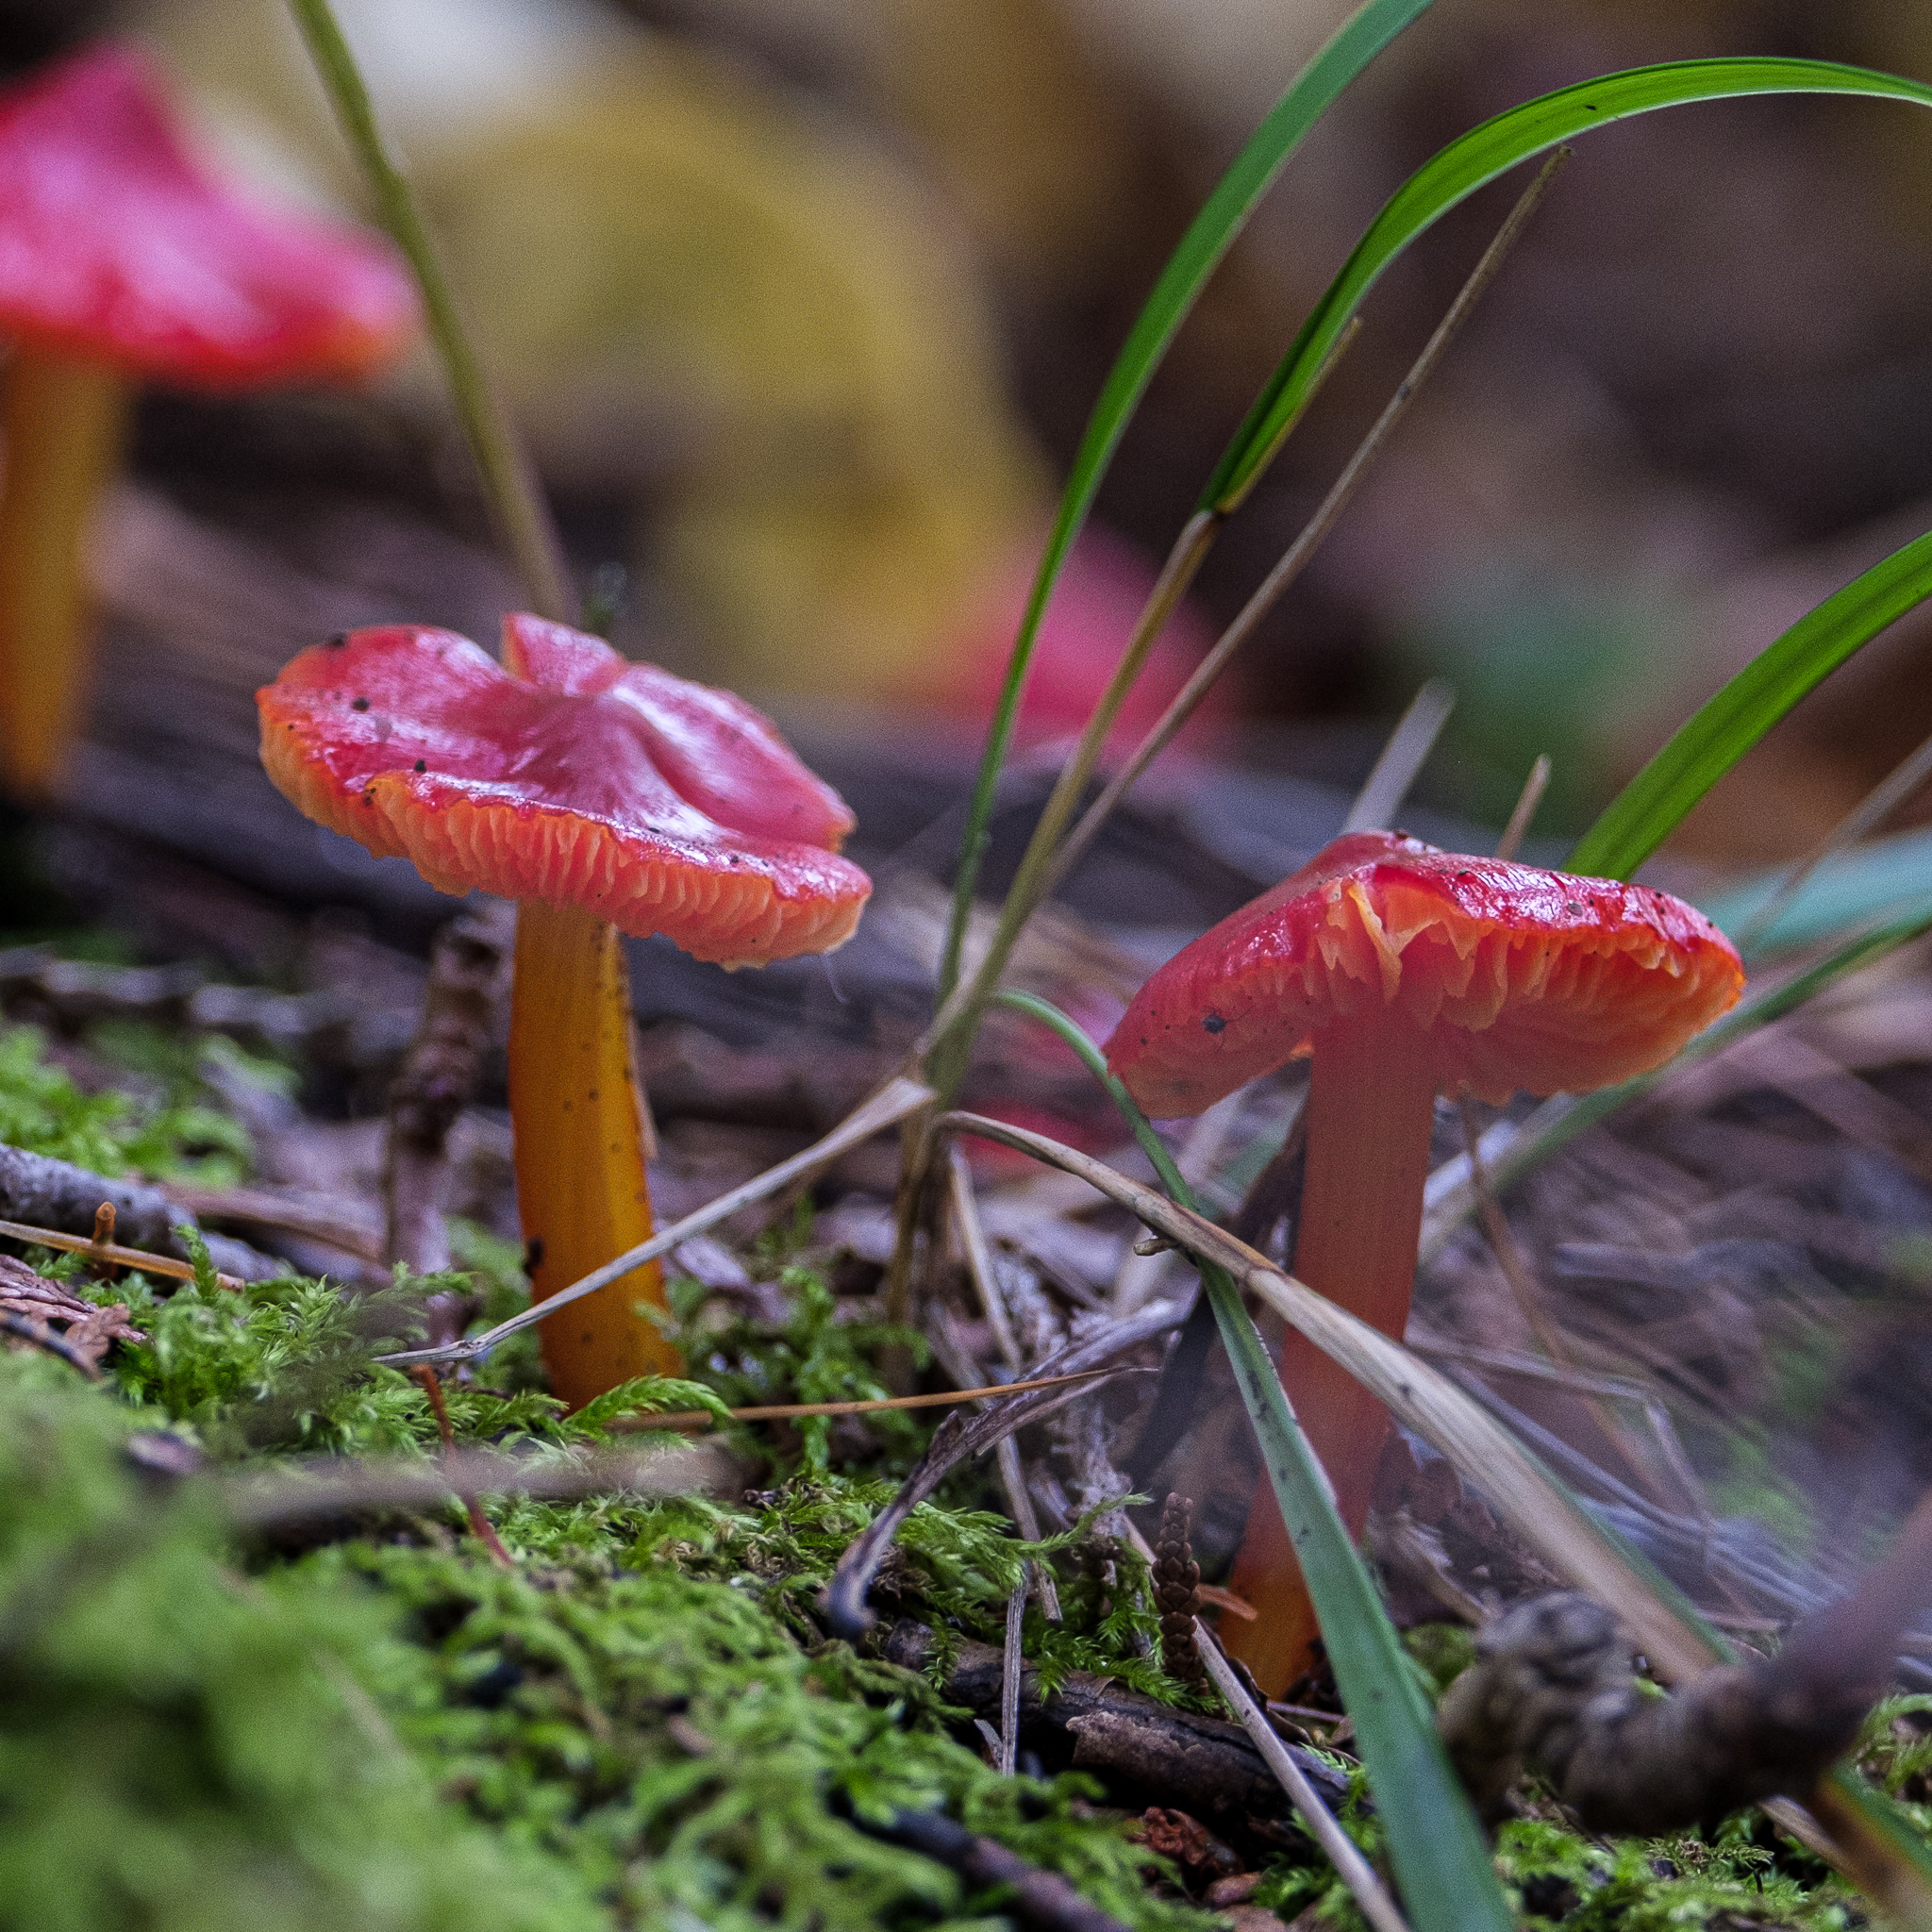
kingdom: Fungi
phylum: Basidiomycota
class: Agaricomycetes
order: Agaricales
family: Hygrophoraceae
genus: Hygrocybe
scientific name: Hygrocybe cuspidata
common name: Candy apple waxy cap
